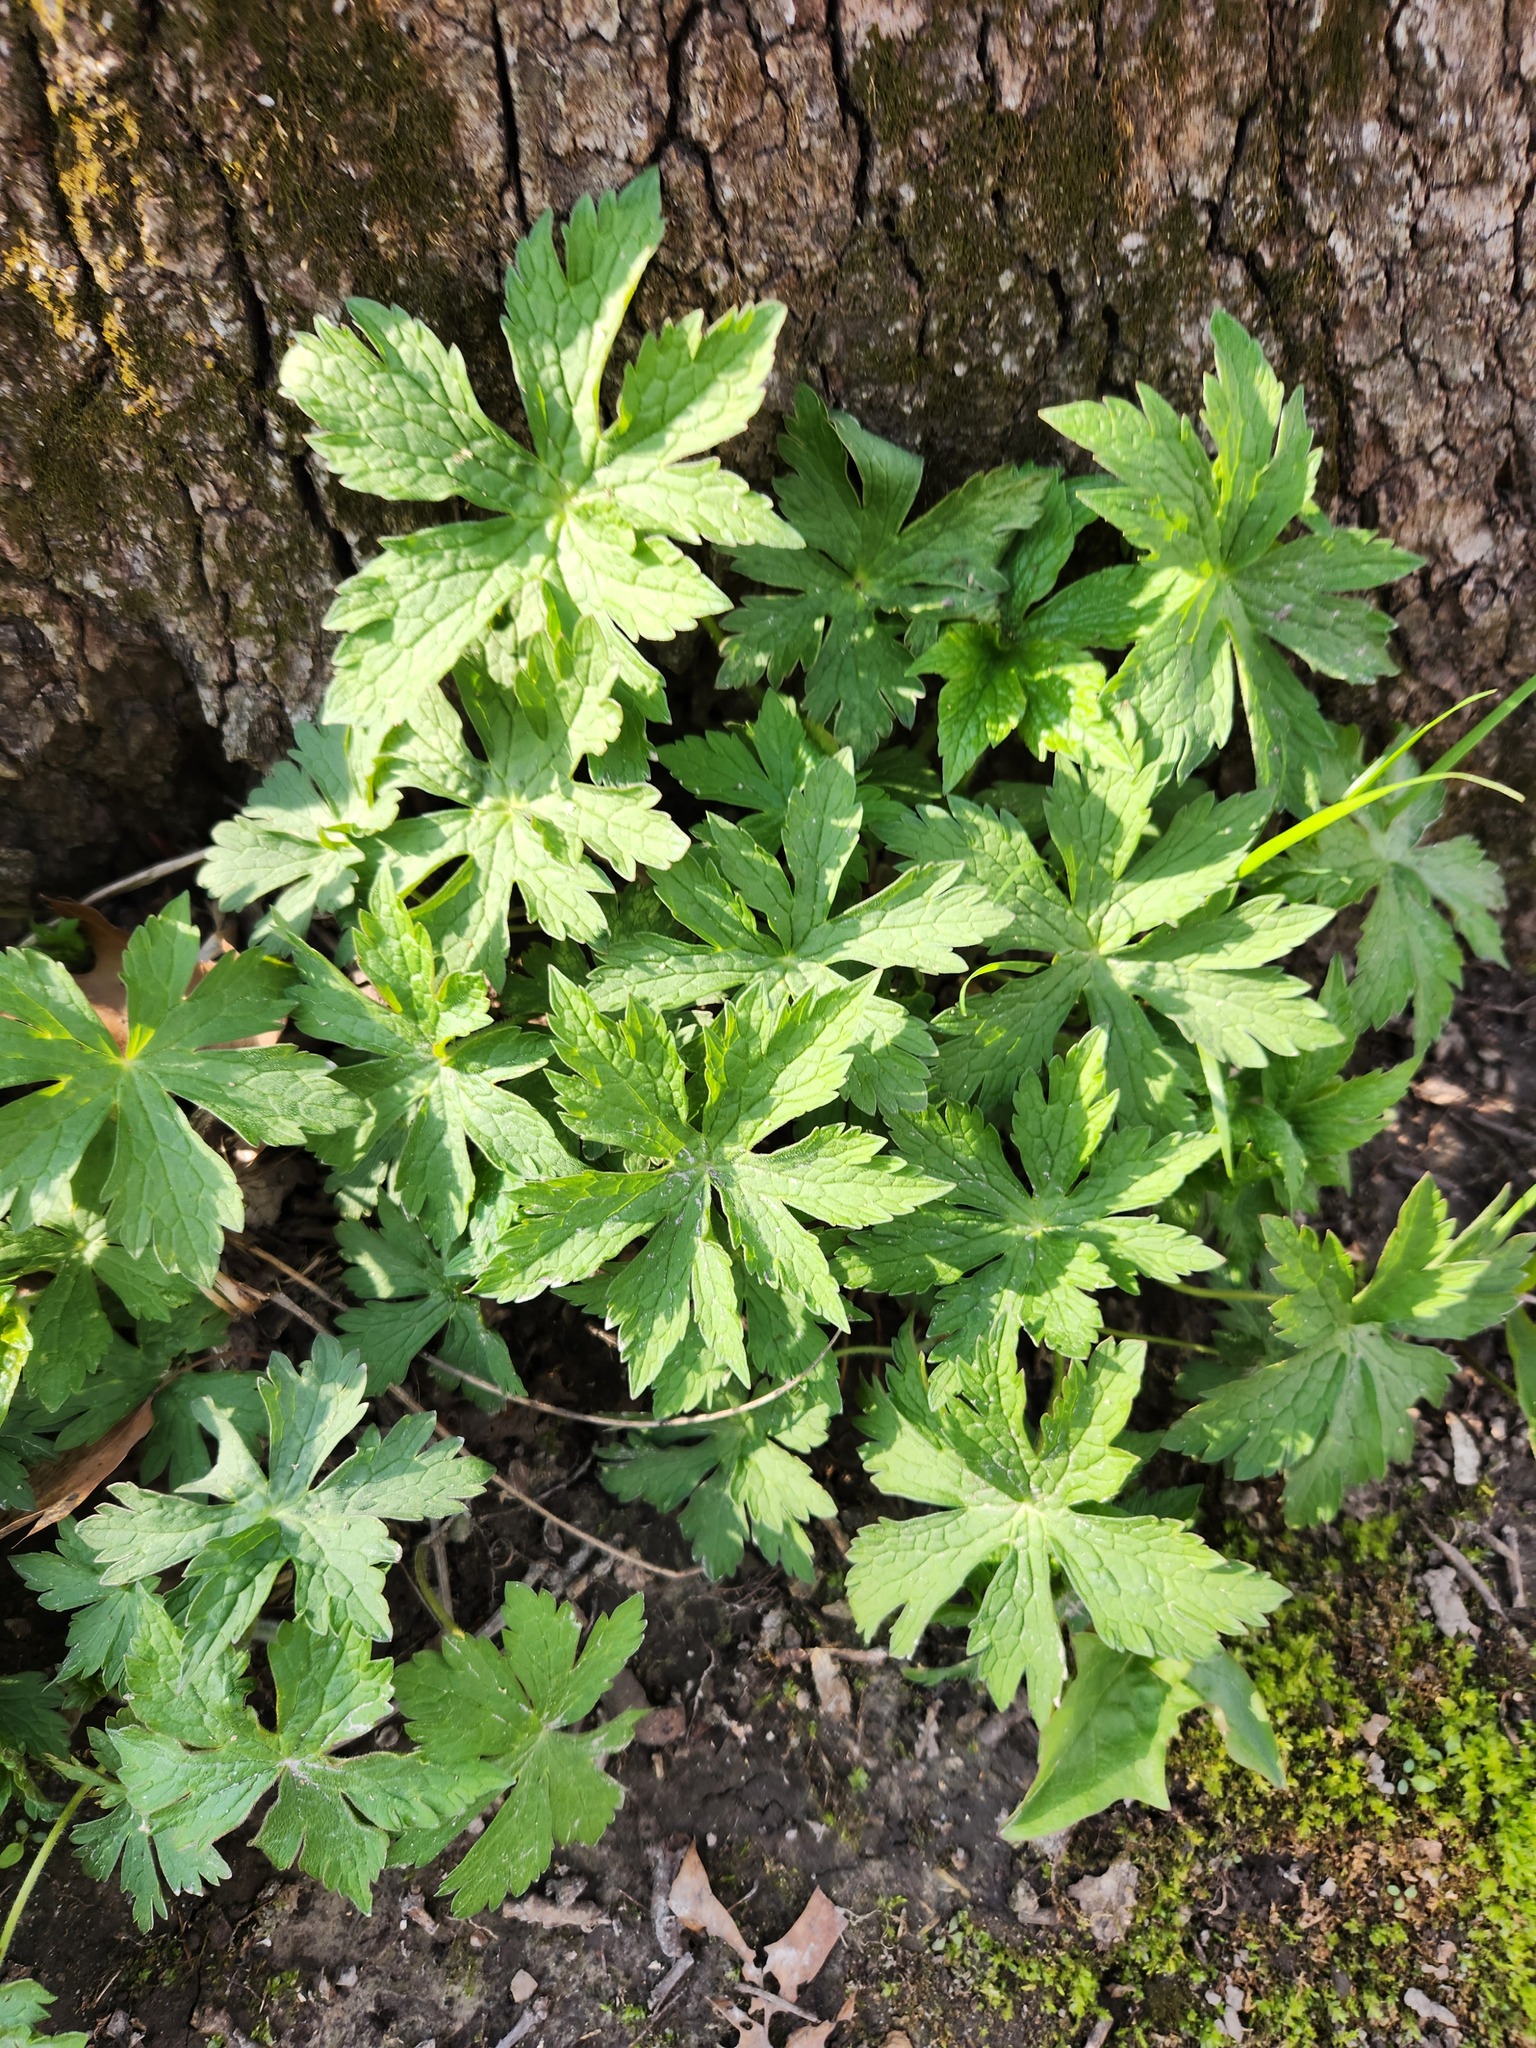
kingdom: Plantae
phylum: Tracheophyta
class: Magnoliopsida
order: Geraniales
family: Geraniaceae
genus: Geranium
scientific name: Geranium maculatum
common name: Spotted geranium
